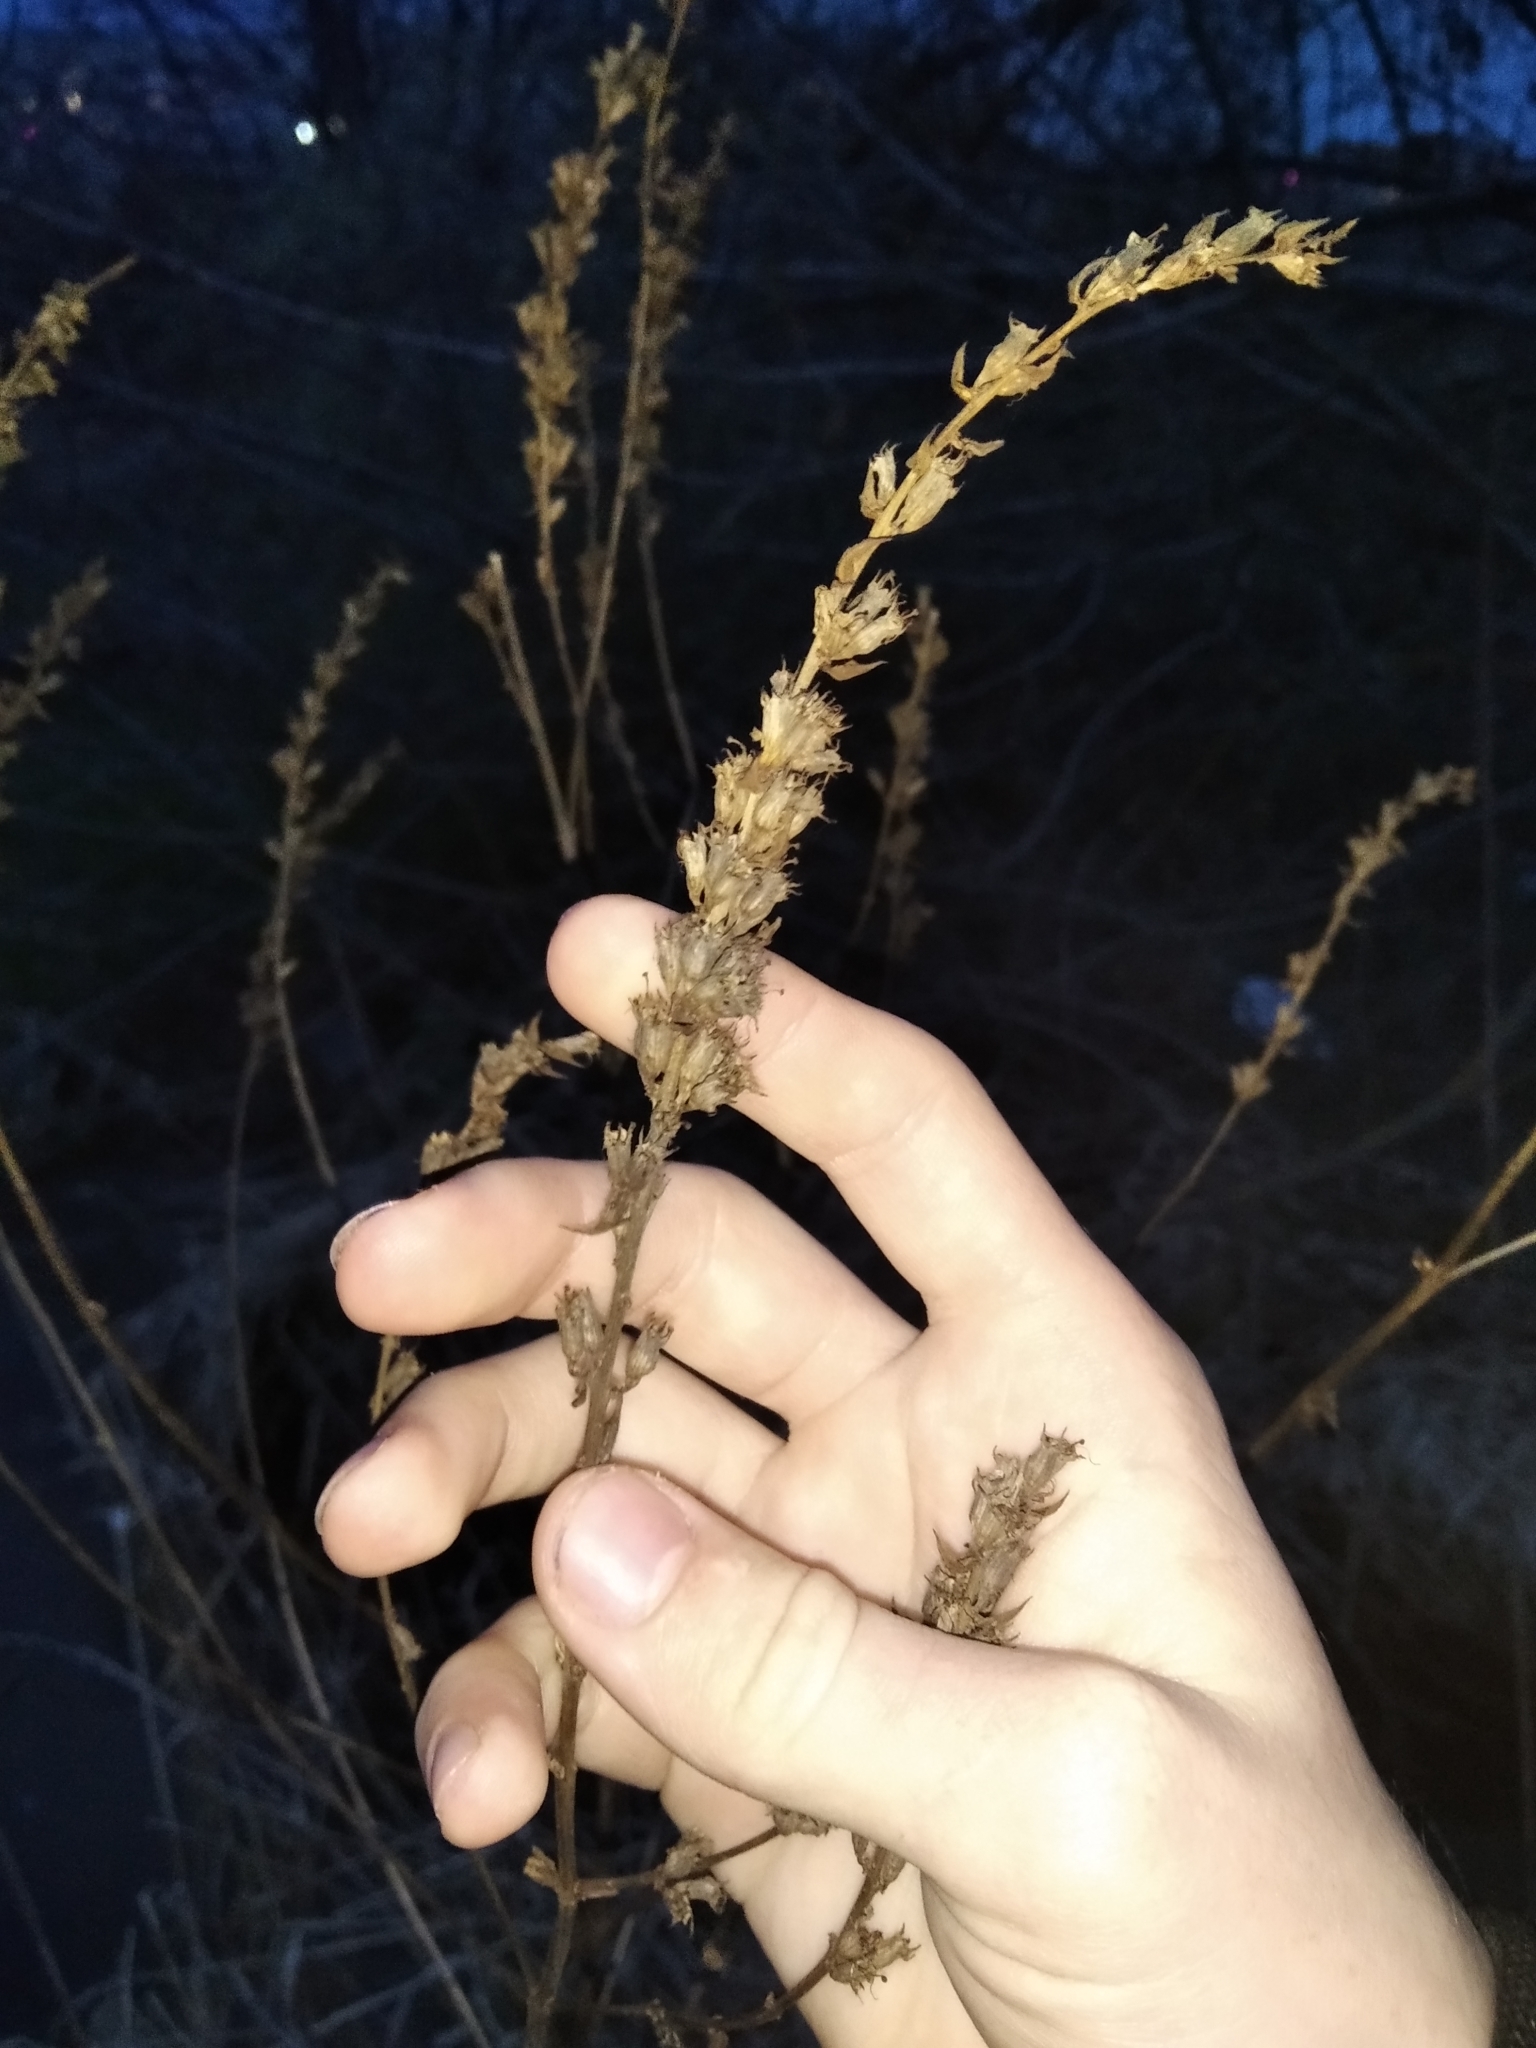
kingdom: Plantae
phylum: Tracheophyta
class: Magnoliopsida
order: Myrtales
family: Lythraceae
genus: Lythrum
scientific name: Lythrum salicaria
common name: Purple loosestrife
